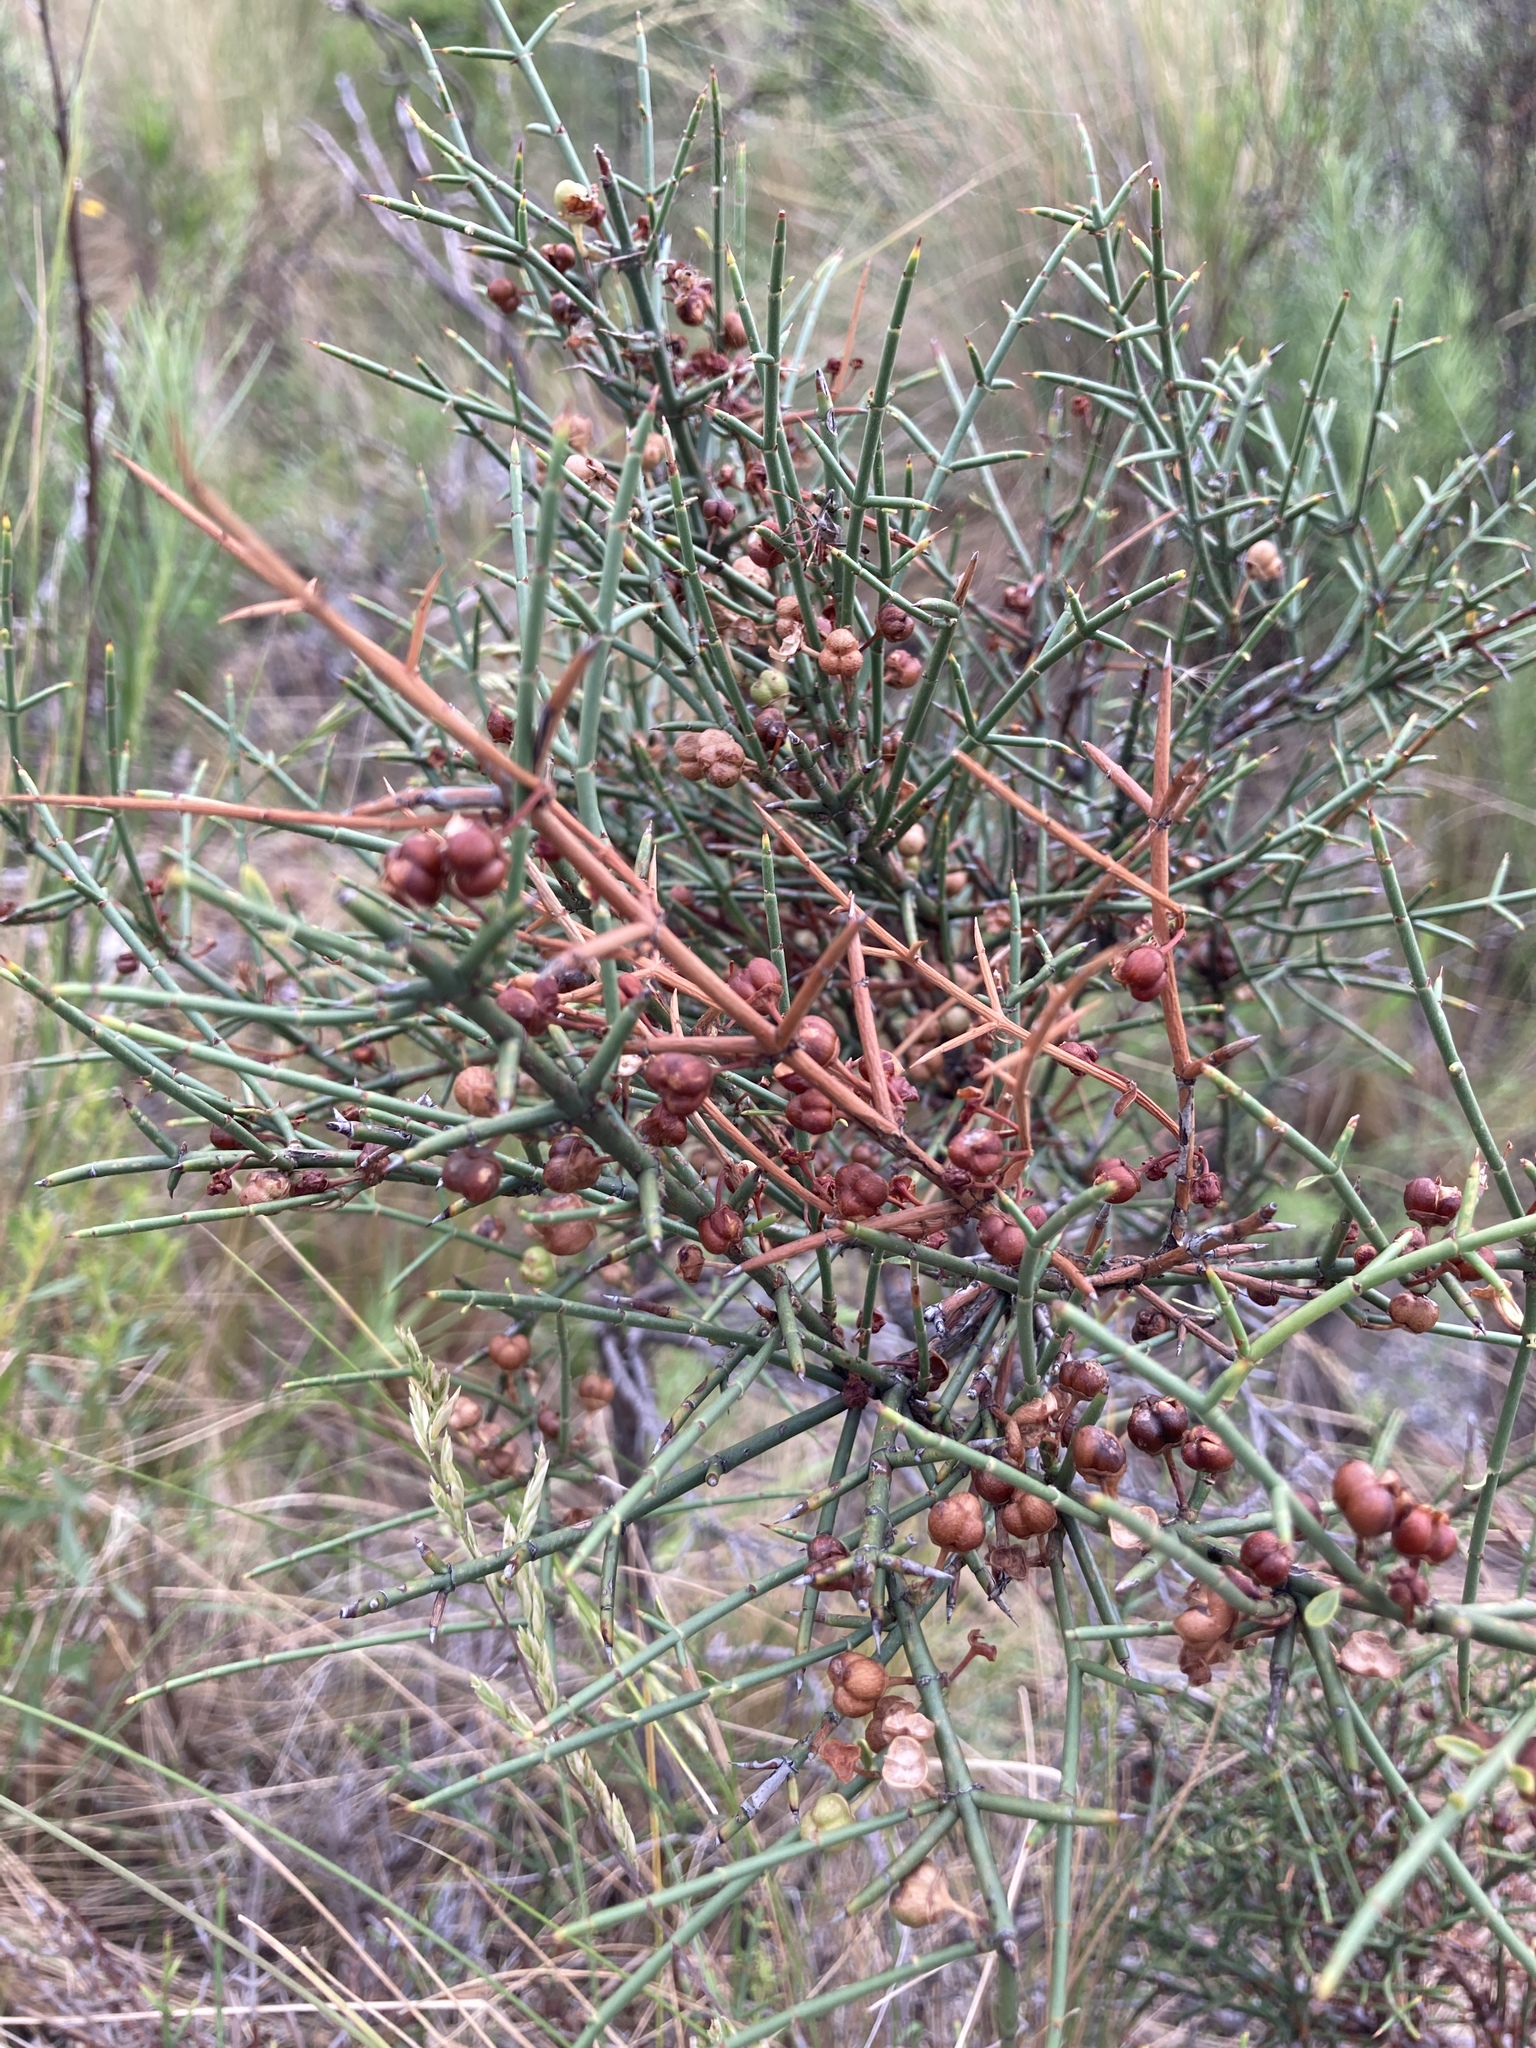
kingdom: Plantae
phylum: Tracheophyta
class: Magnoliopsida
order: Rosales
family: Rhamnaceae
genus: Discaria
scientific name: Discaria americana
